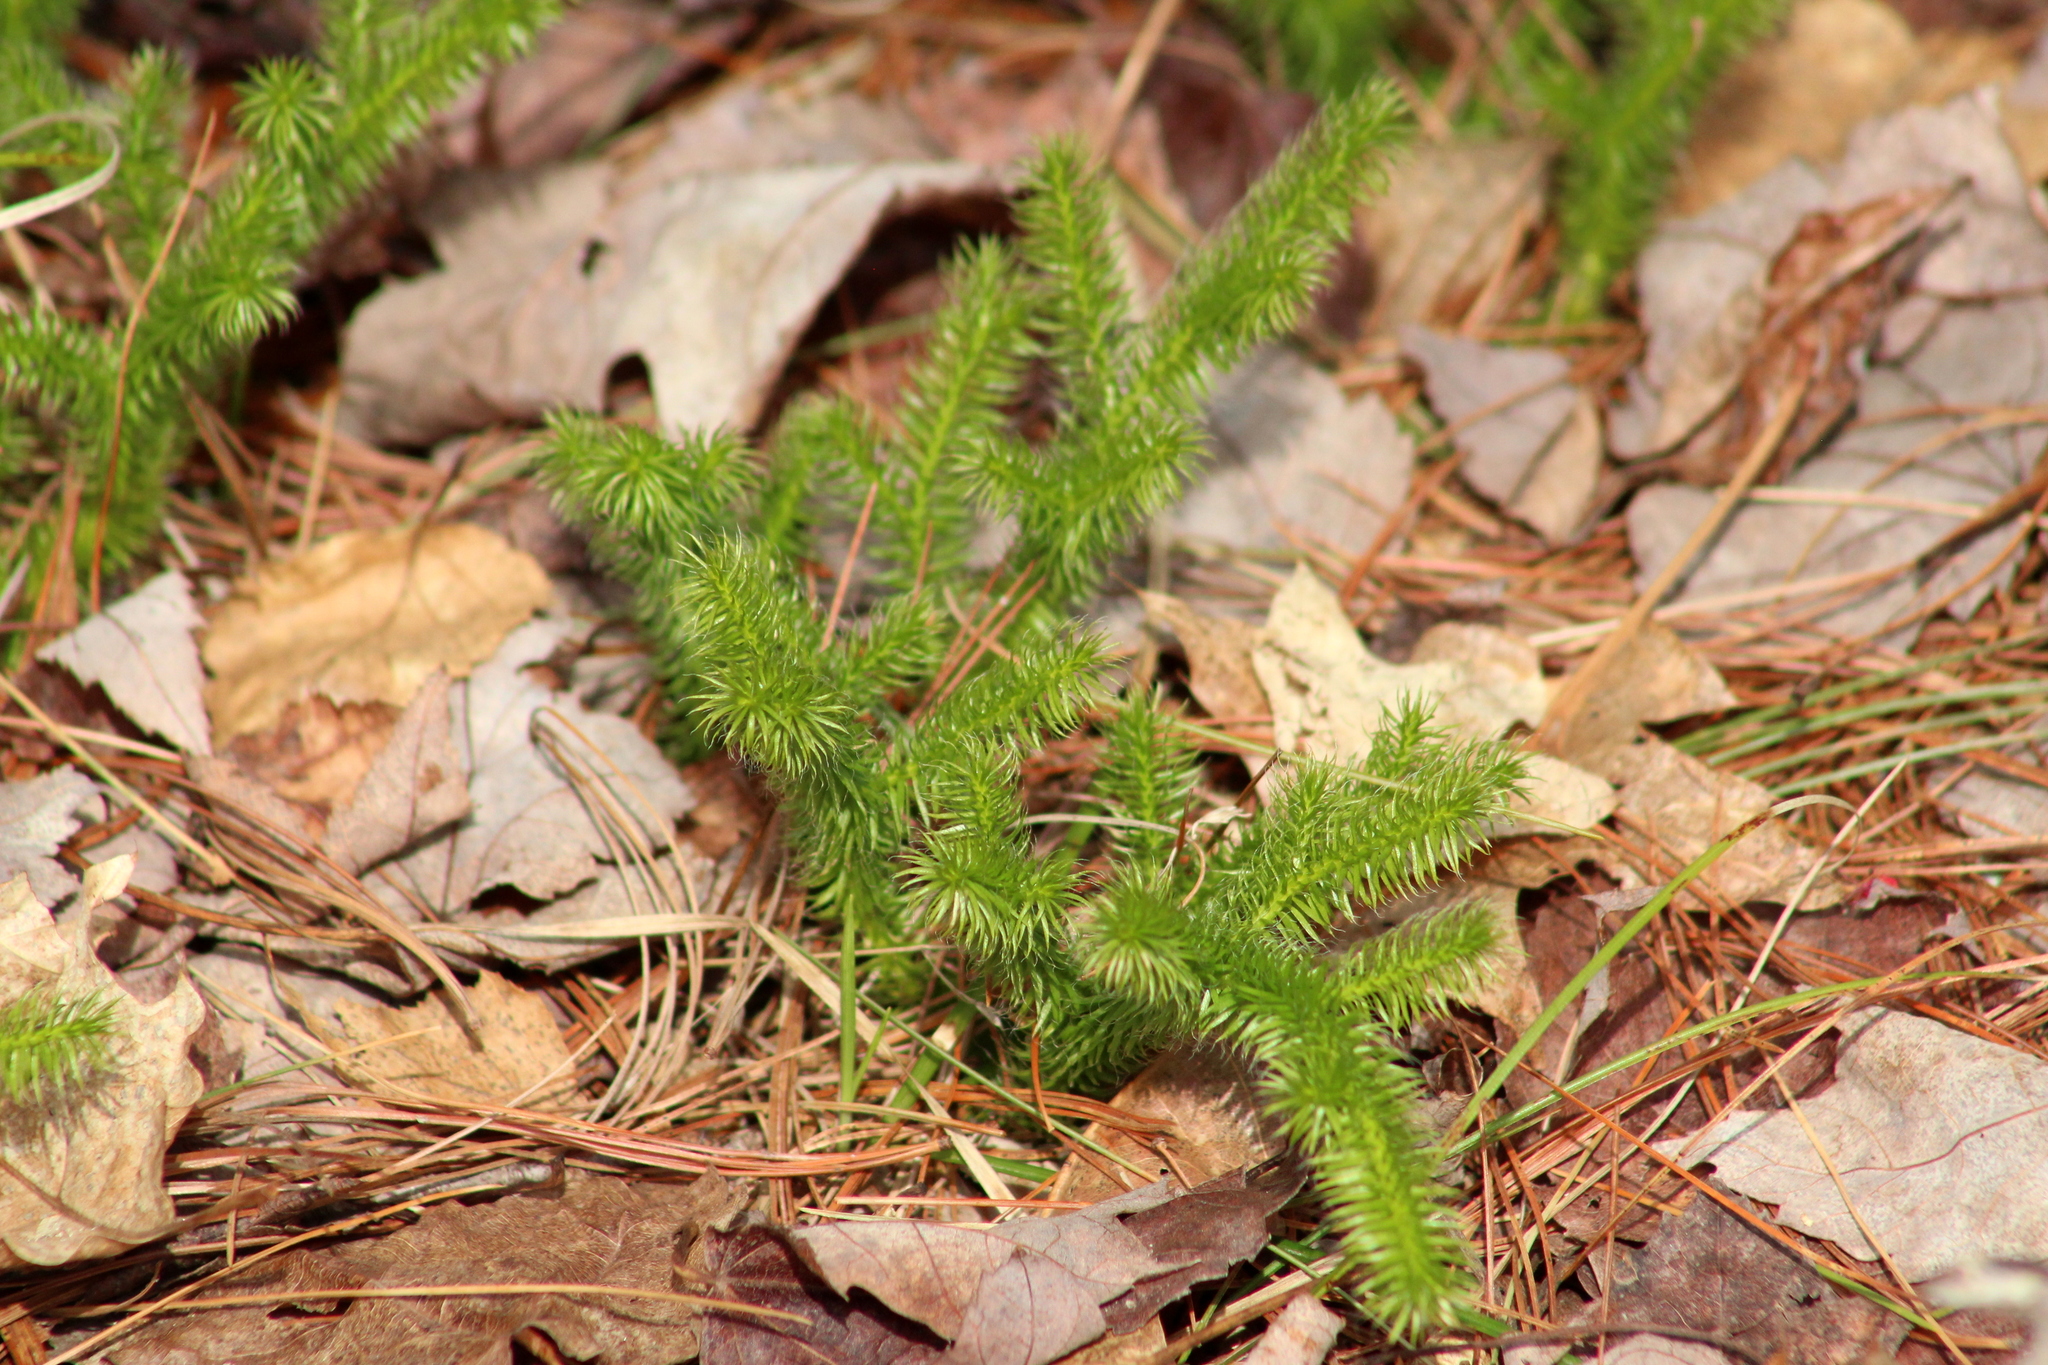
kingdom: Plantae
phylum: Tracheophyta
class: Lycopodiopsida
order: Lycopodiales
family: Lycopodiaceae
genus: Lycopodium
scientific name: Lycopodium clavatum
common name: Stag's-horn clubmoss
